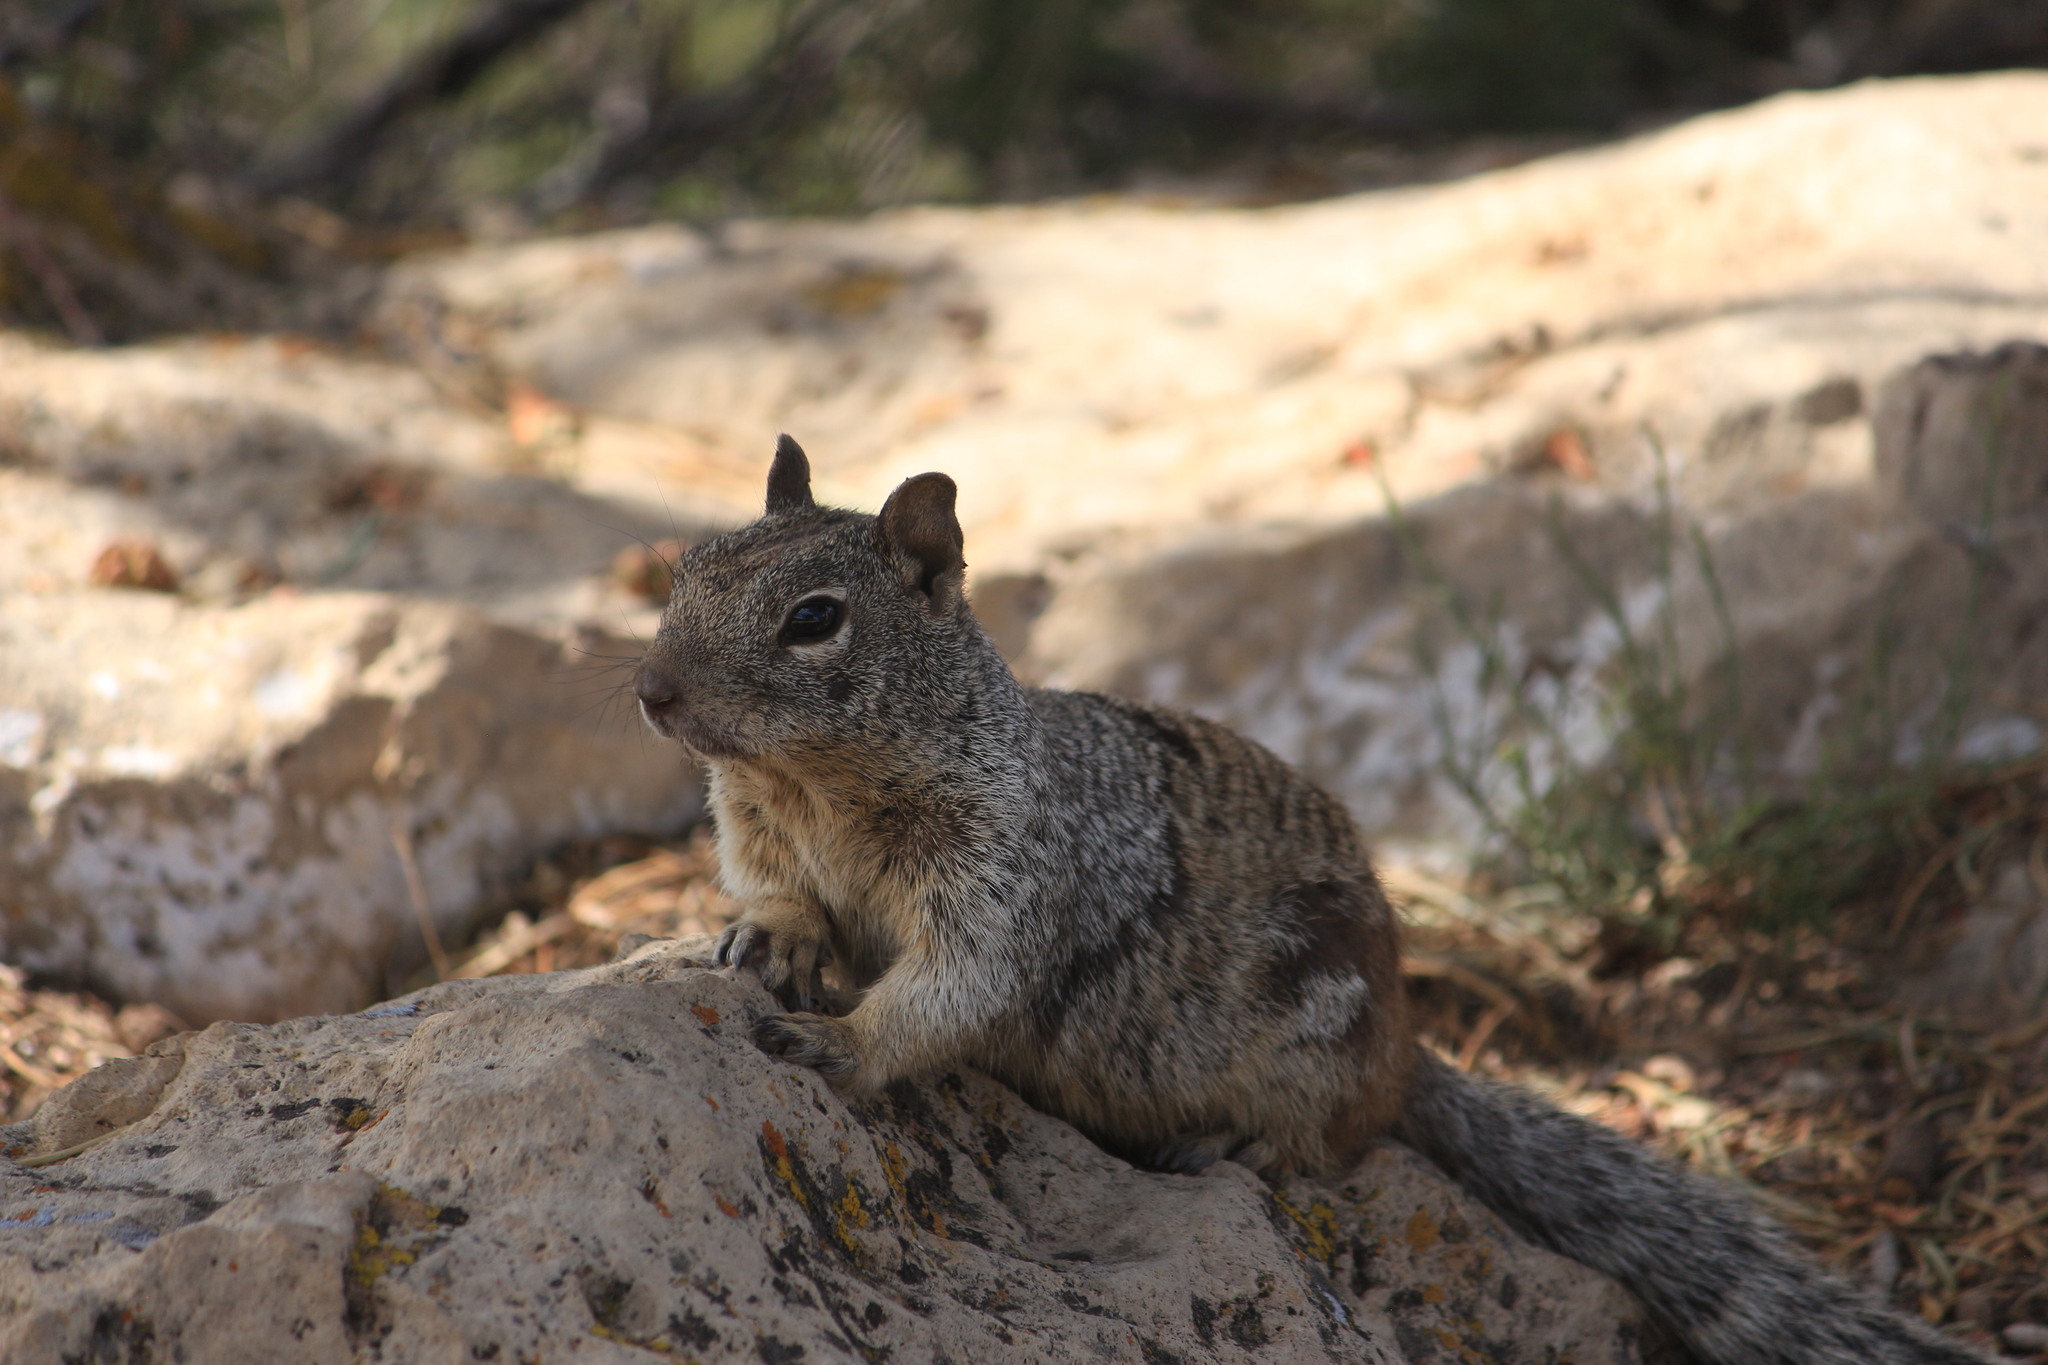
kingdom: Animalia
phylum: Chordata
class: Mammalia
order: Rodentia
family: Sciuridae
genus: Otospermophilus
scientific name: Otospermophilus variegatus
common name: Rock squirrel
